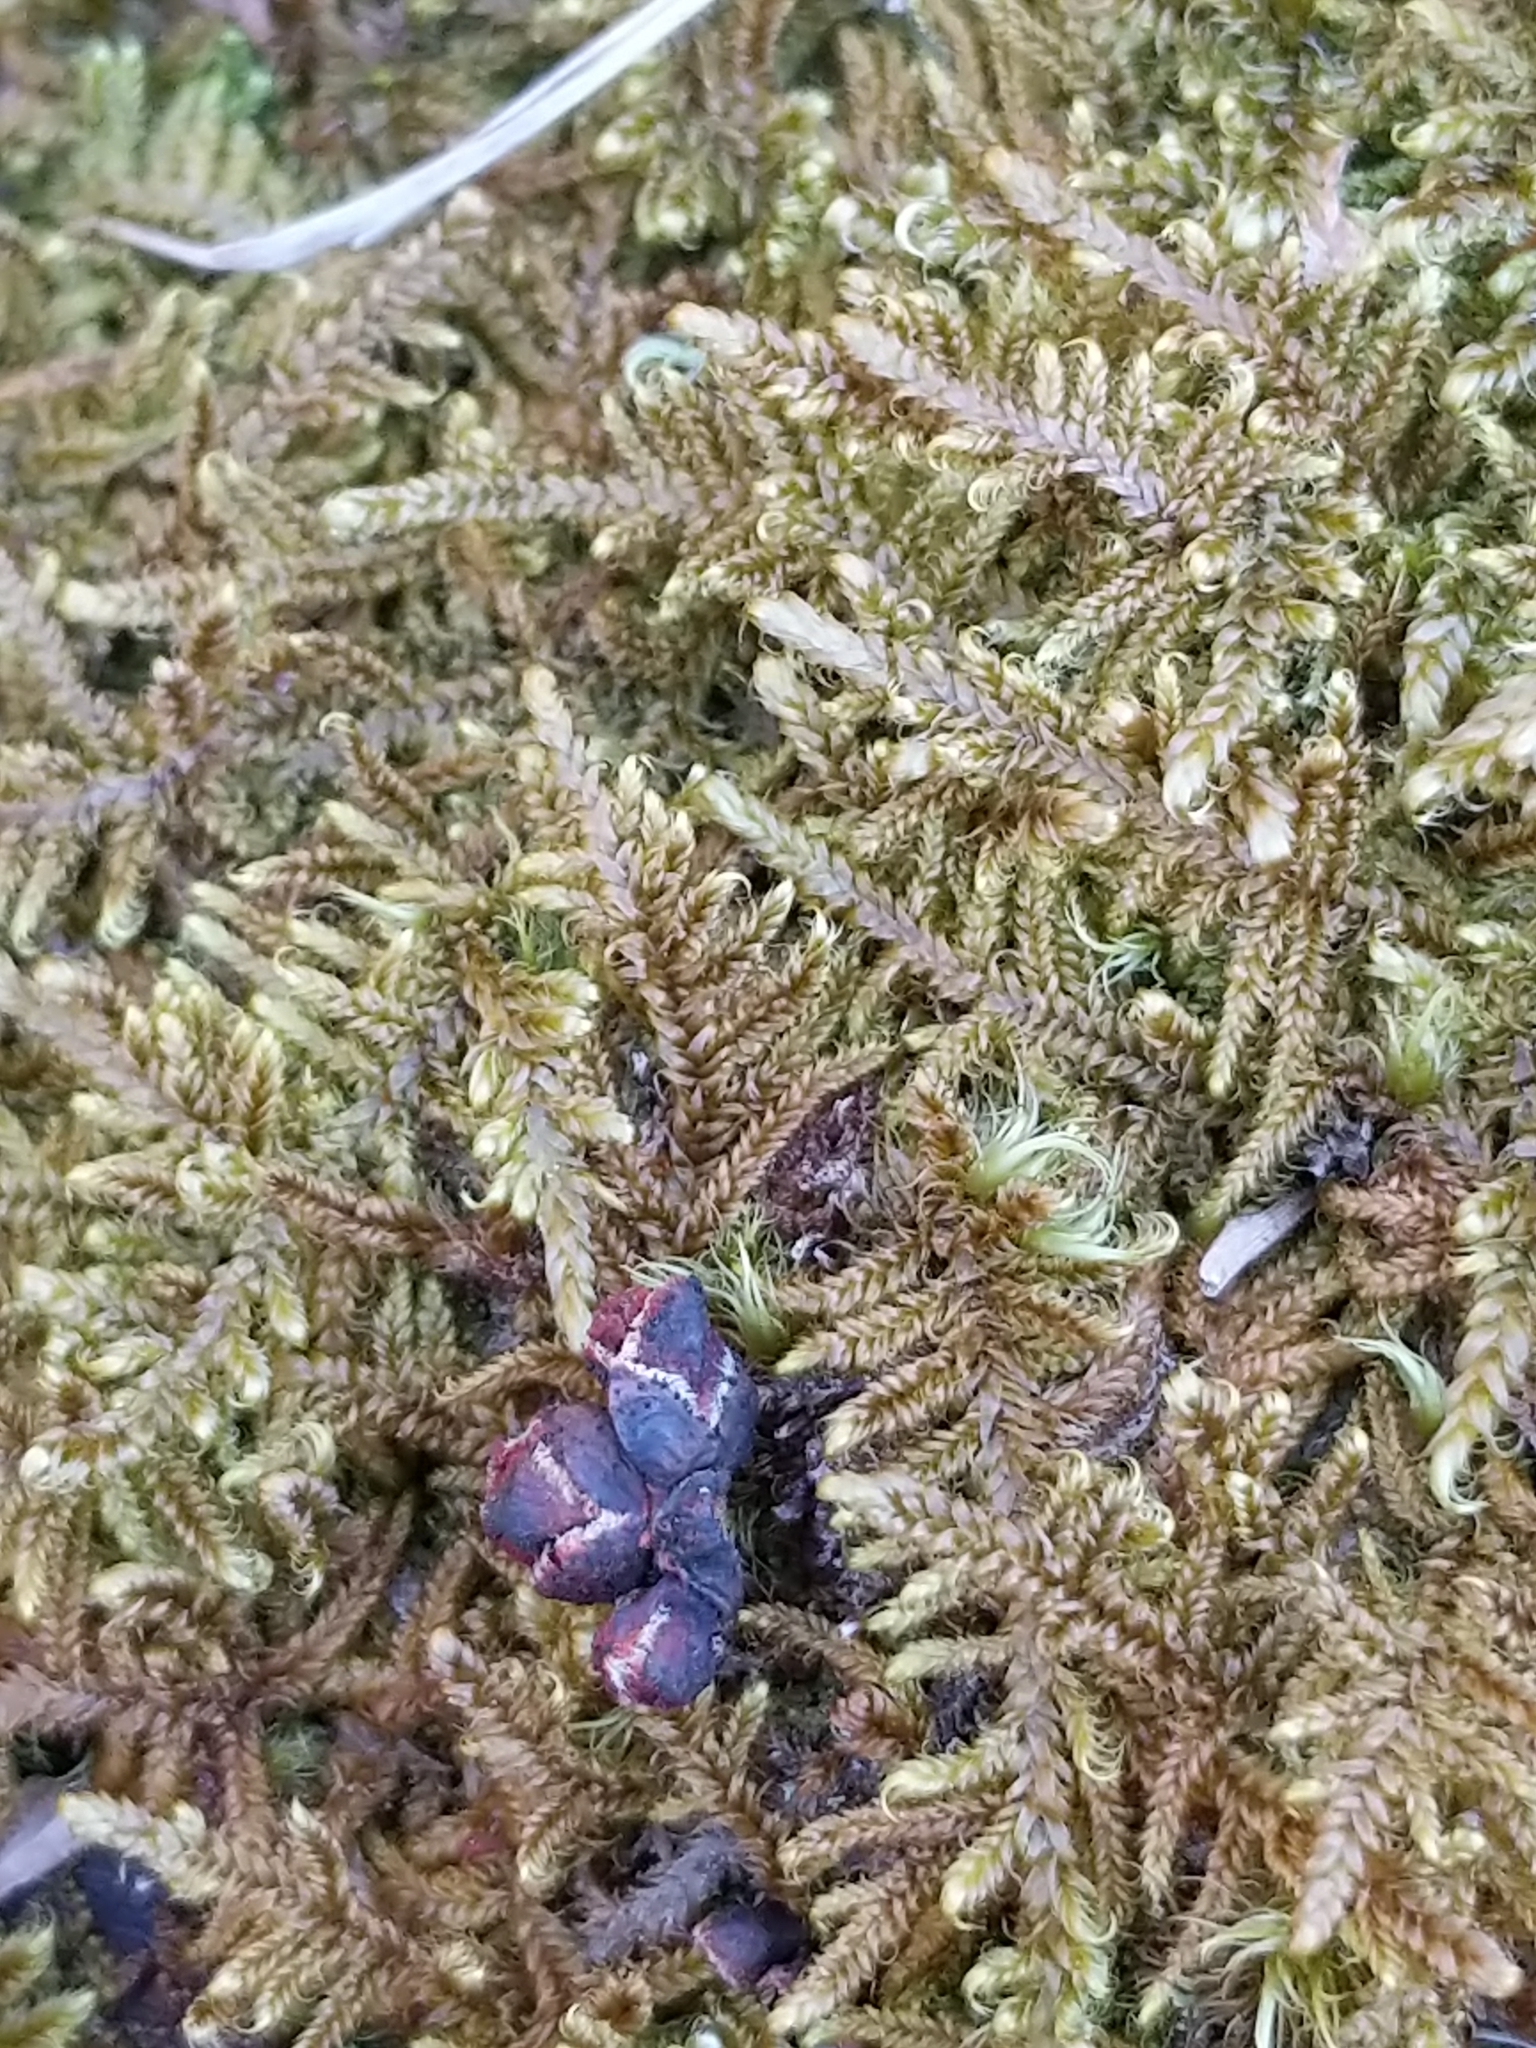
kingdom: Plantae
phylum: Bryophyta
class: Bryopsida
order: Hypnales
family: Callicladiaceae
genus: Callicladium
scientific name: Callicladium imponens
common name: Brocade moss
